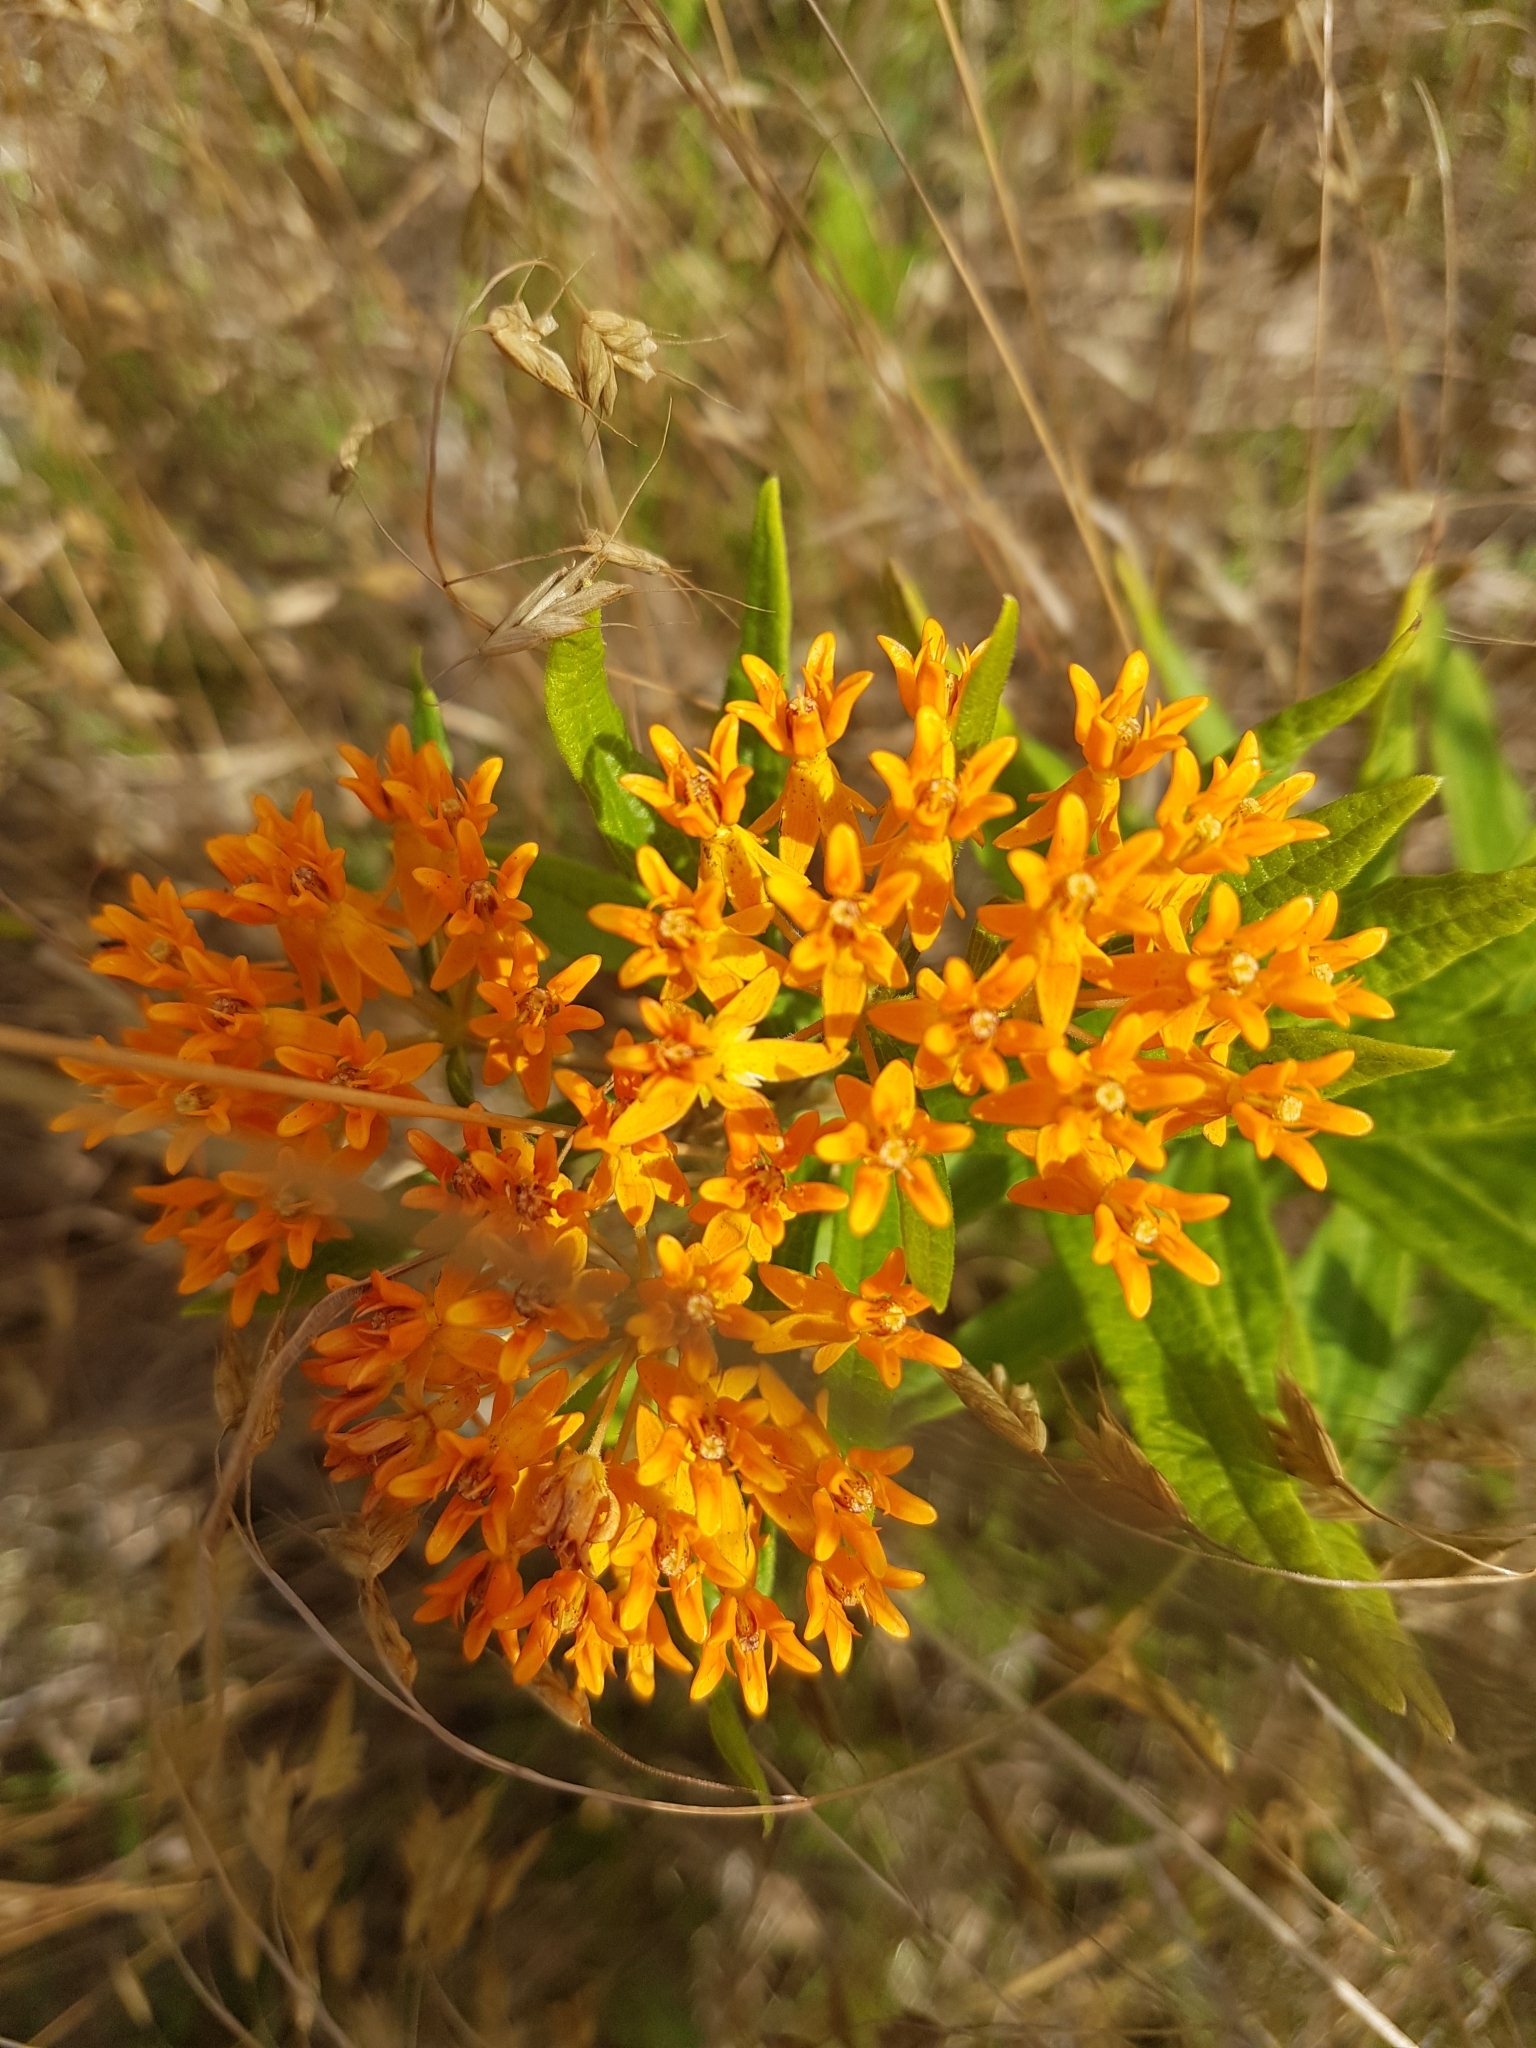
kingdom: Plantae
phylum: Tracheophyta
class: Magnoliopsida
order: Gentianales
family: Apocynaceae
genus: Asclepias
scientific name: Asclepias tuberosa
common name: Butterfly milkweed
